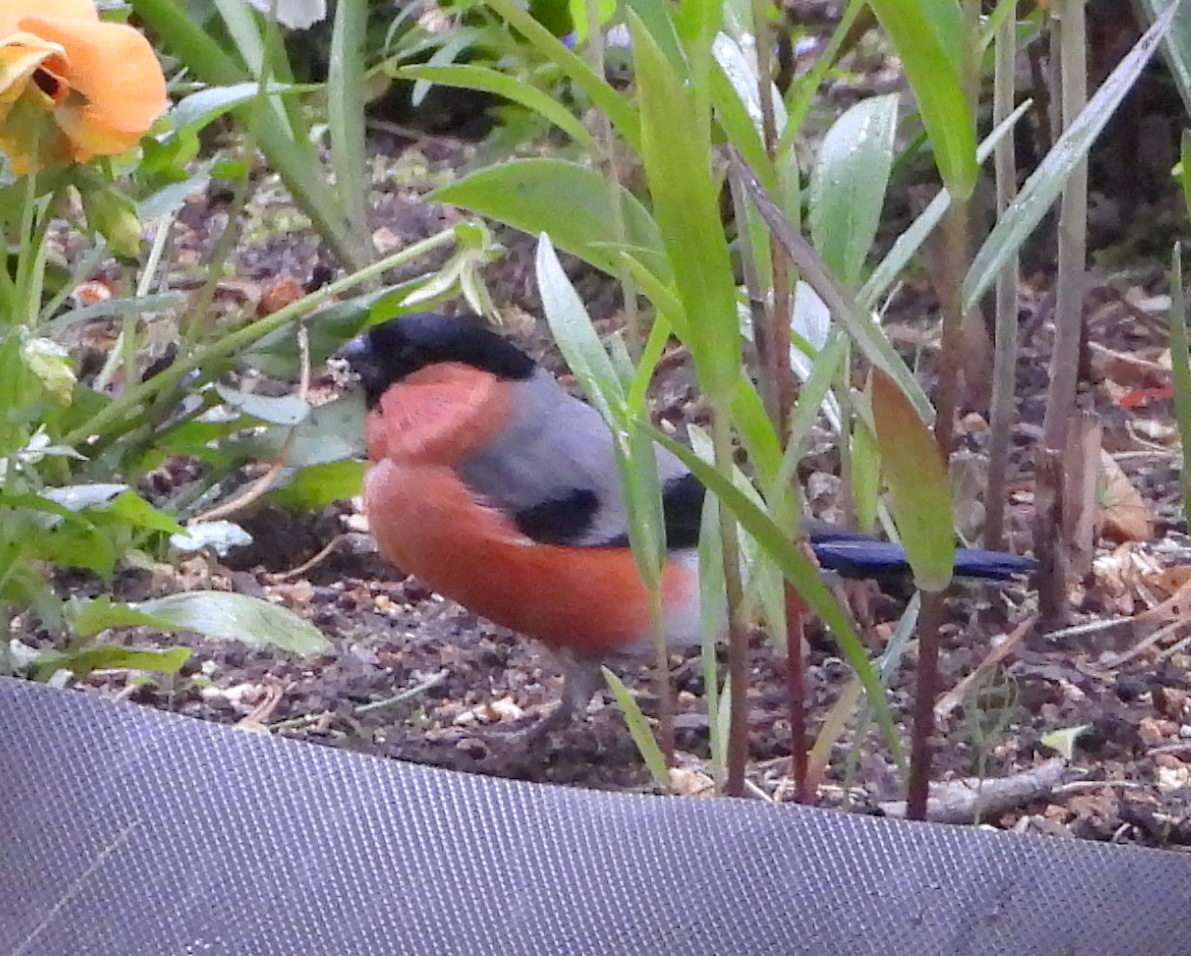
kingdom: Animalia
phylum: Chordata
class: Aves
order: Passeriformes
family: Fringillidae
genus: Pyrrhula
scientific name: Pyrrhula pyrrhula
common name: Eurasian bullfinch
